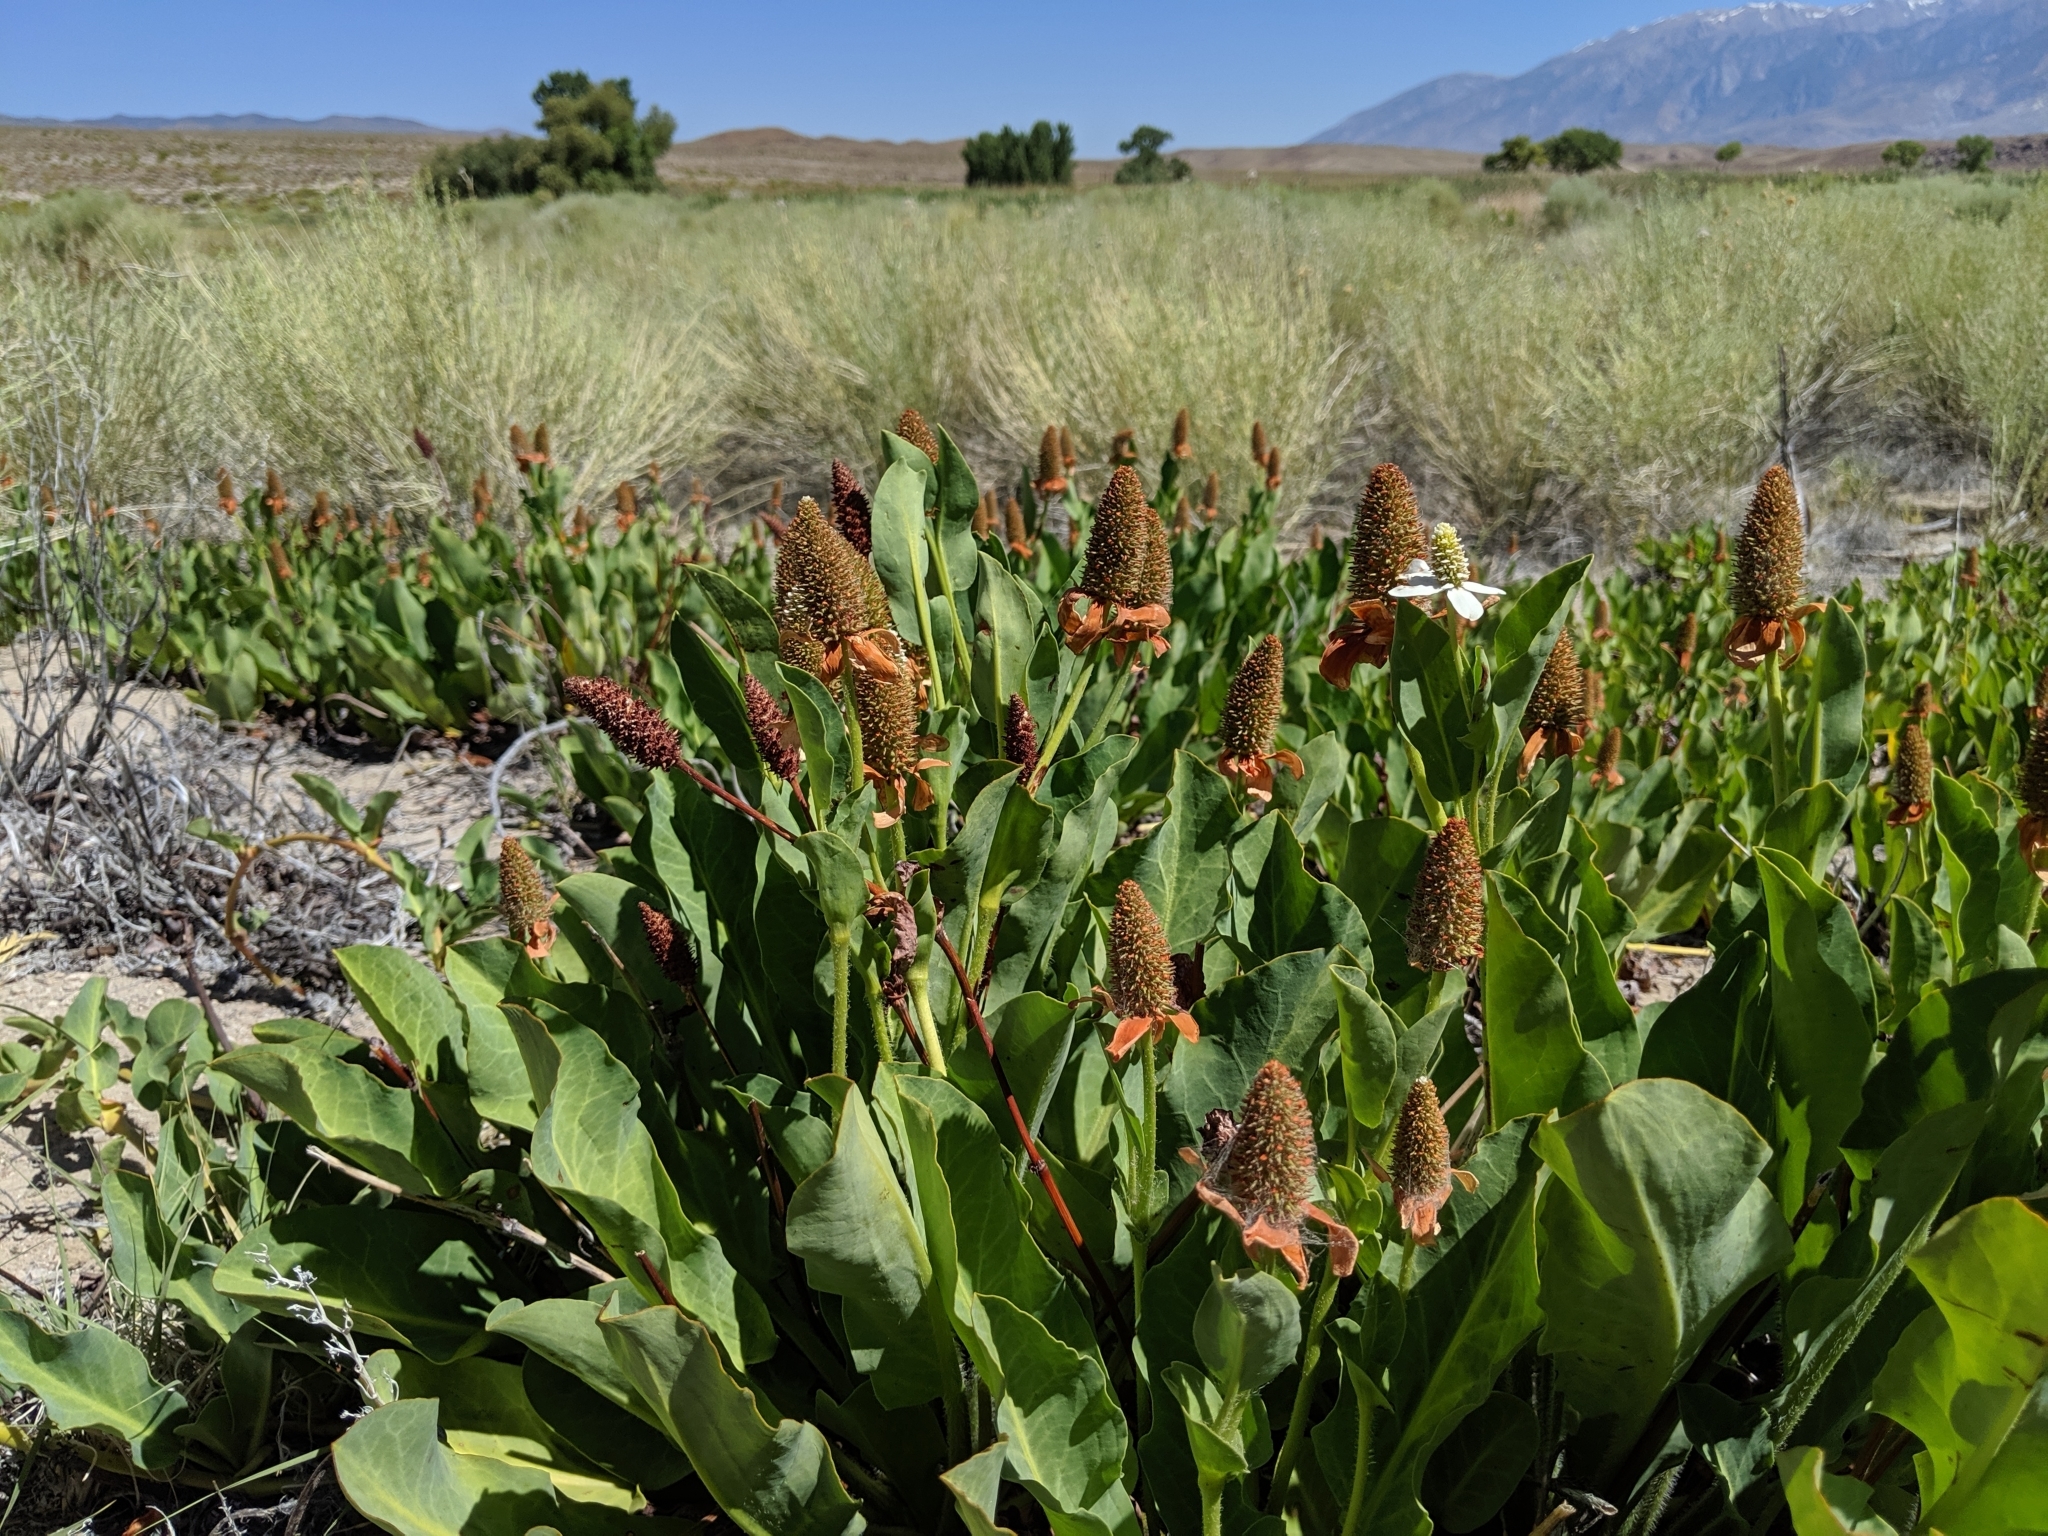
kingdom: Plantae
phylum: Tracheophyta
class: Magnoliopsida
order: Piperales
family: Saururaceae
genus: Anemopsis
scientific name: Anemopsis californica
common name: Apache-beads
